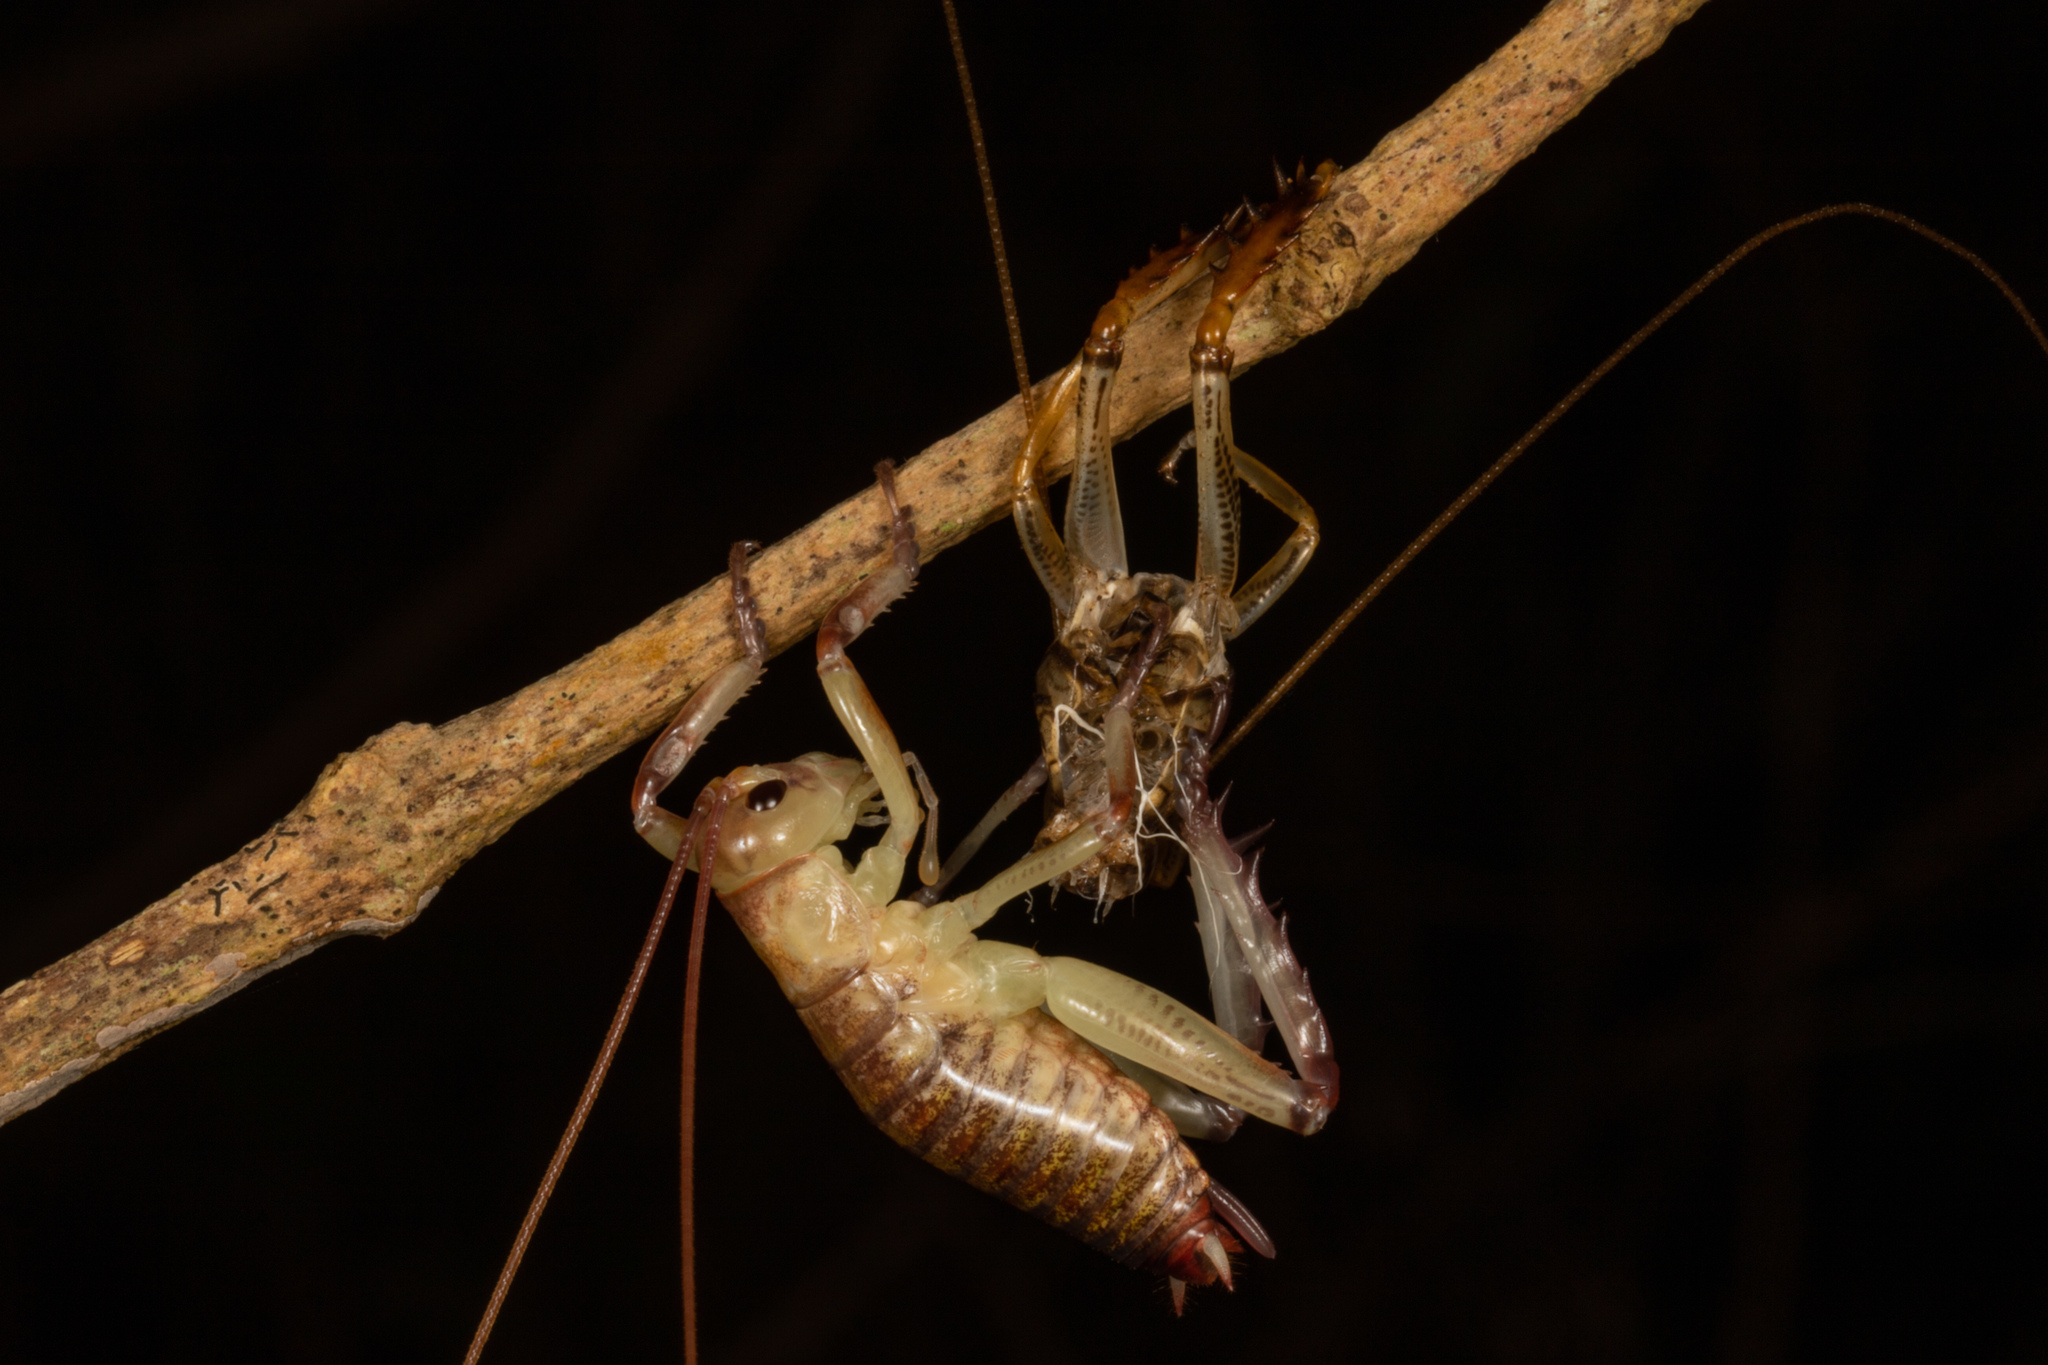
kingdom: Animalia
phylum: Arthropoda
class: Insecta
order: Orthoptera
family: Anostostomatidae
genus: Hemideina
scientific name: Hemideina thoracica
